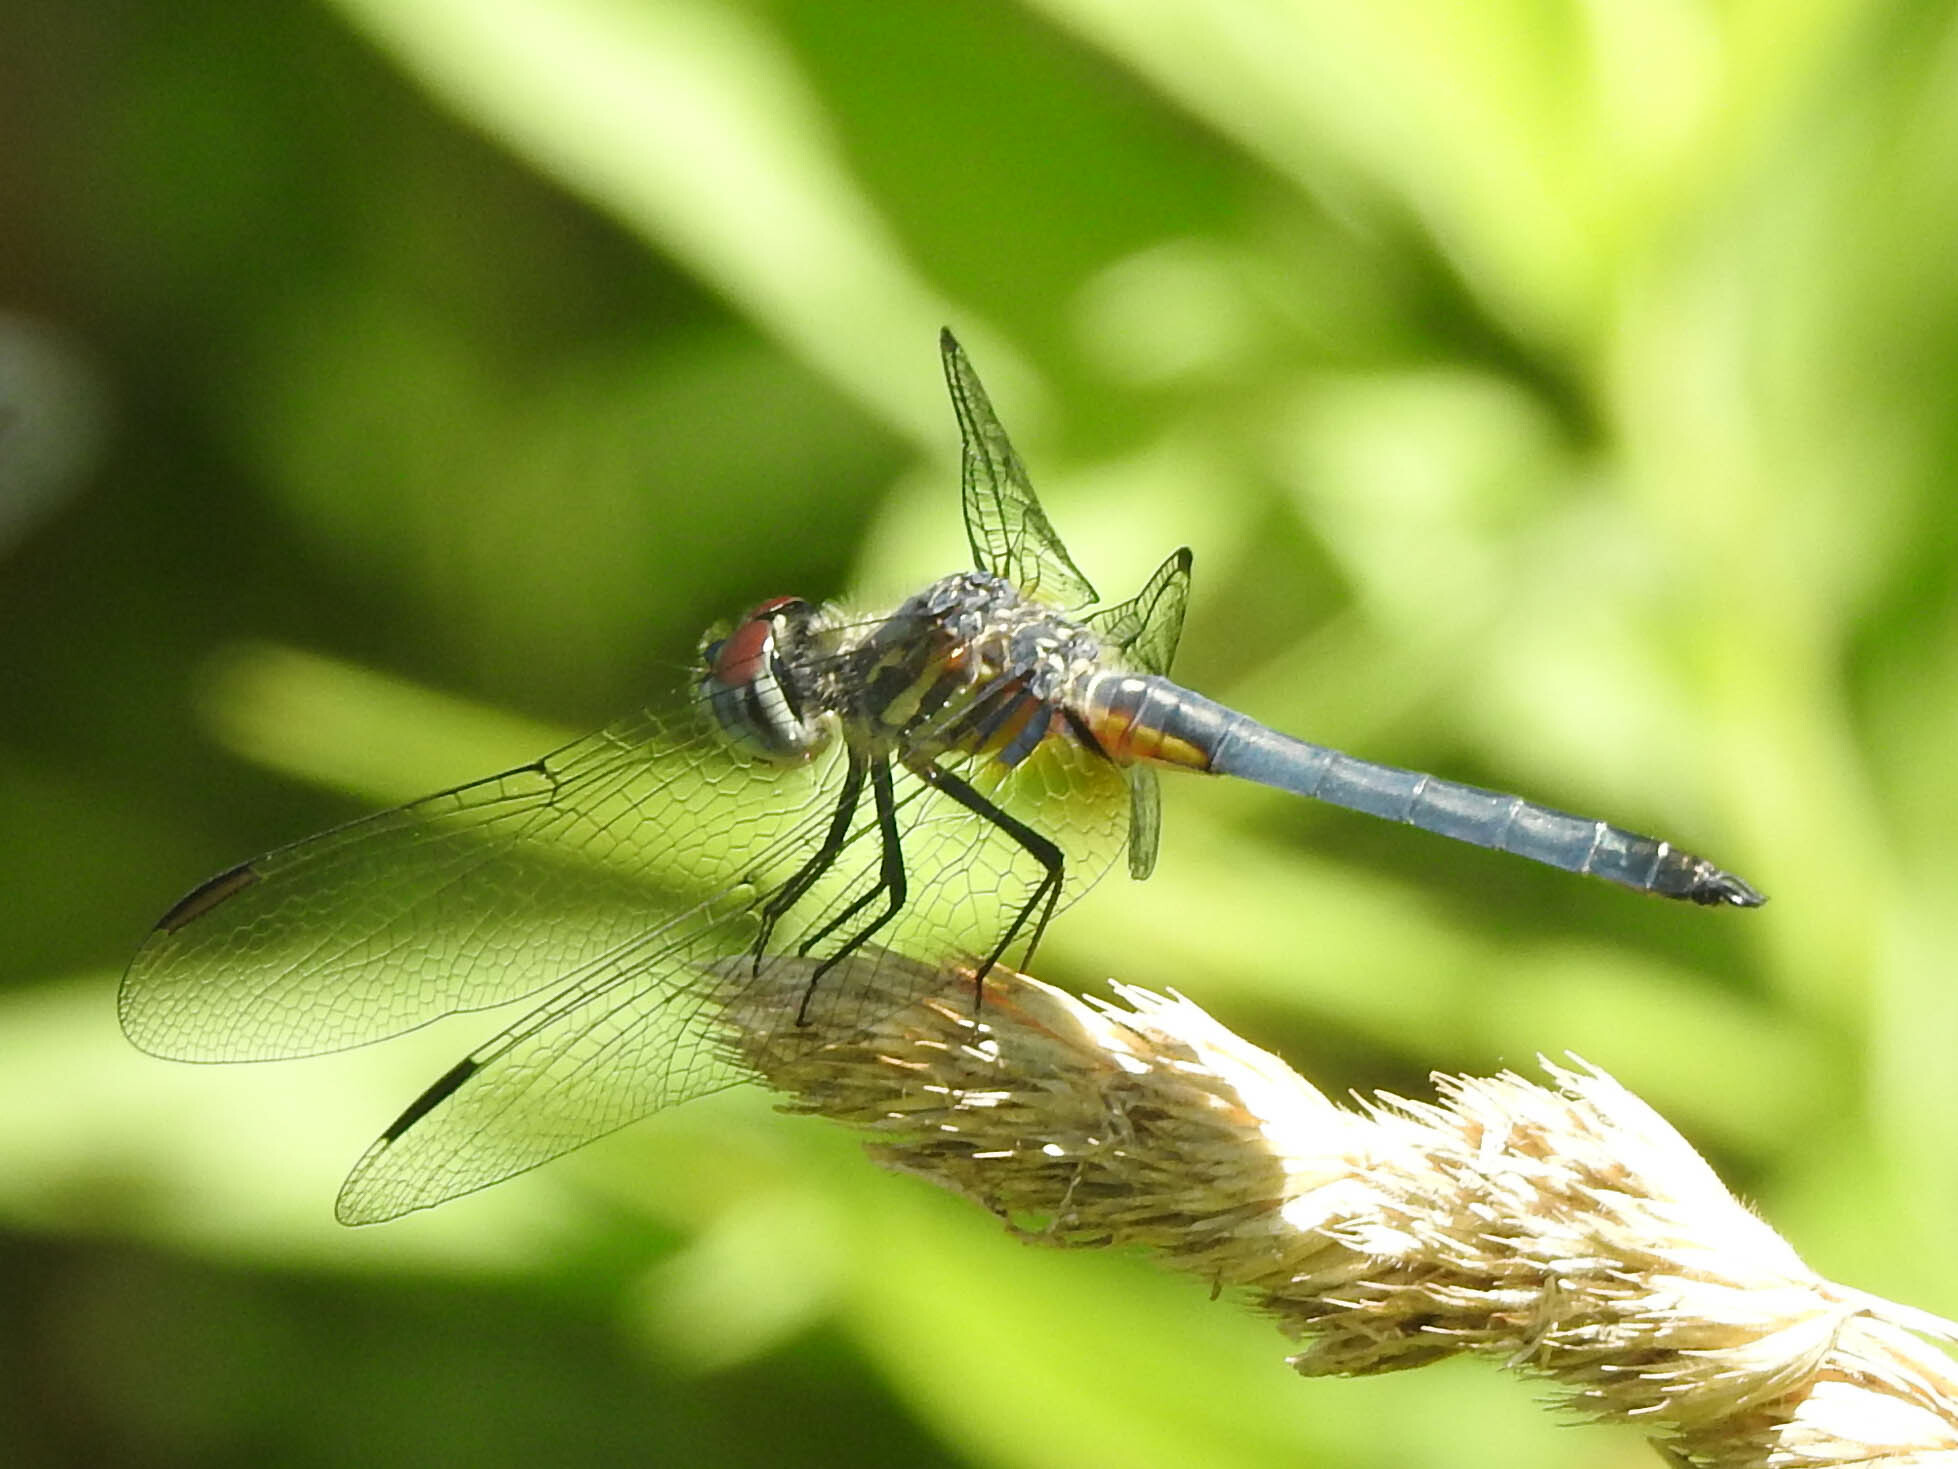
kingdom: Animalia
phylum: Arthropoda
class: Insecta
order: Odonata
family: Libellulidae
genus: Pachydiplax
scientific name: Pachydiplax longipennis
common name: Blue dasher
